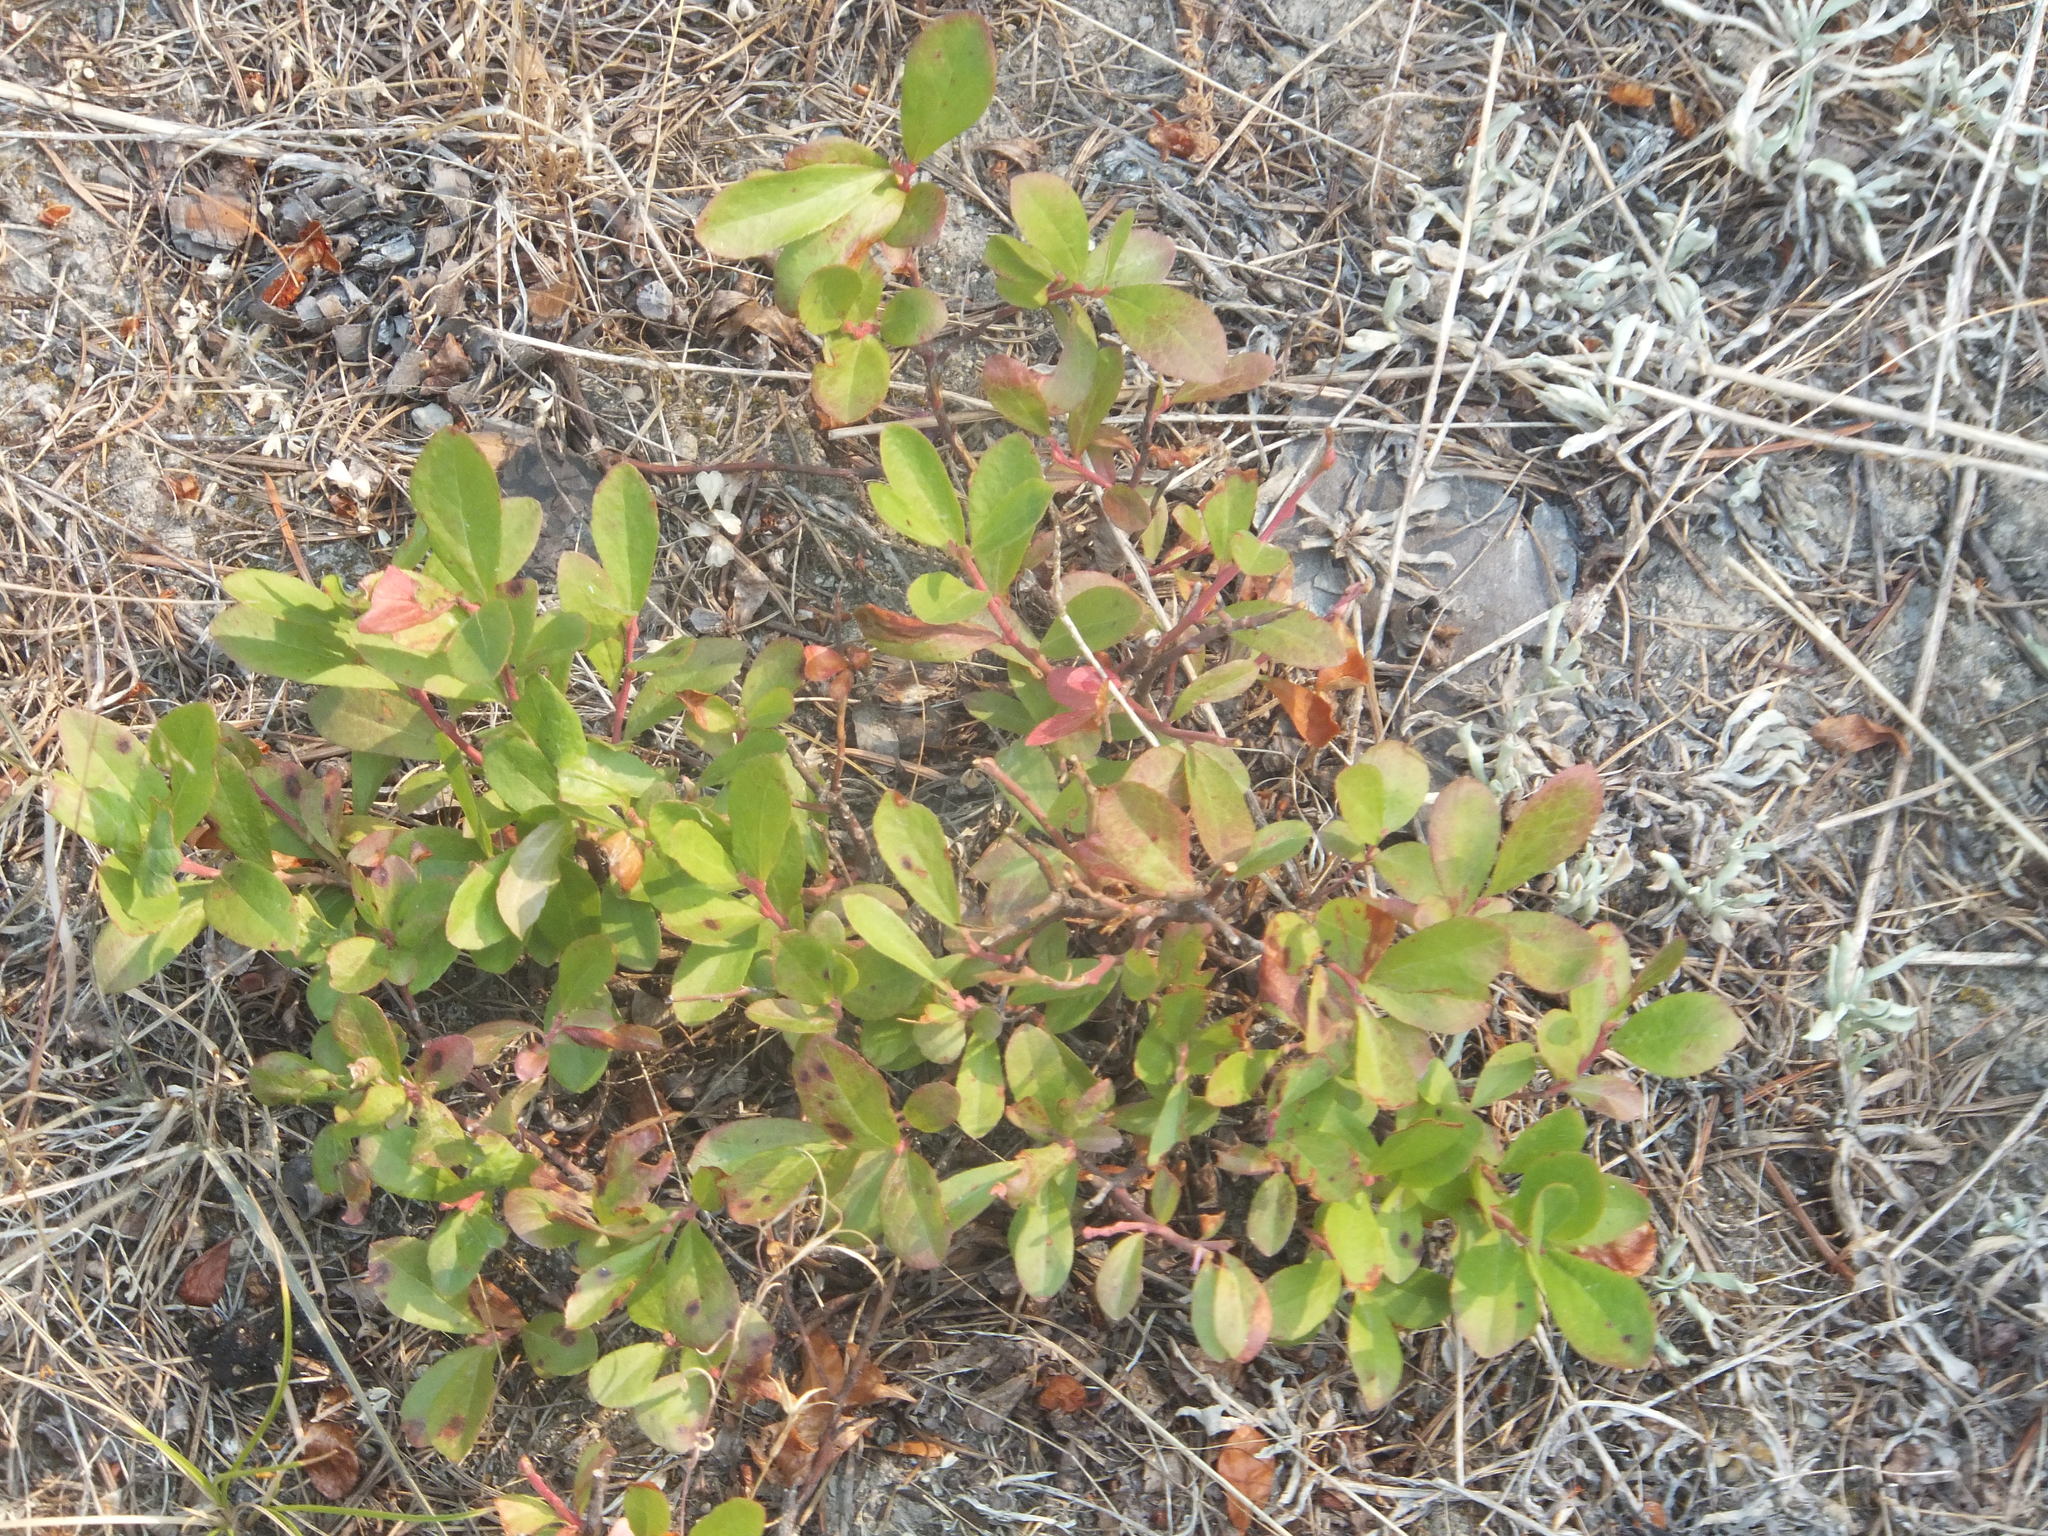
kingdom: Plantae
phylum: Tracheophyta
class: Magnoliopsida
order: Ericales
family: Ericaceae
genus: Vaccinium
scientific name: Vaccinium cespitosum
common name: Dwarf bilberry
